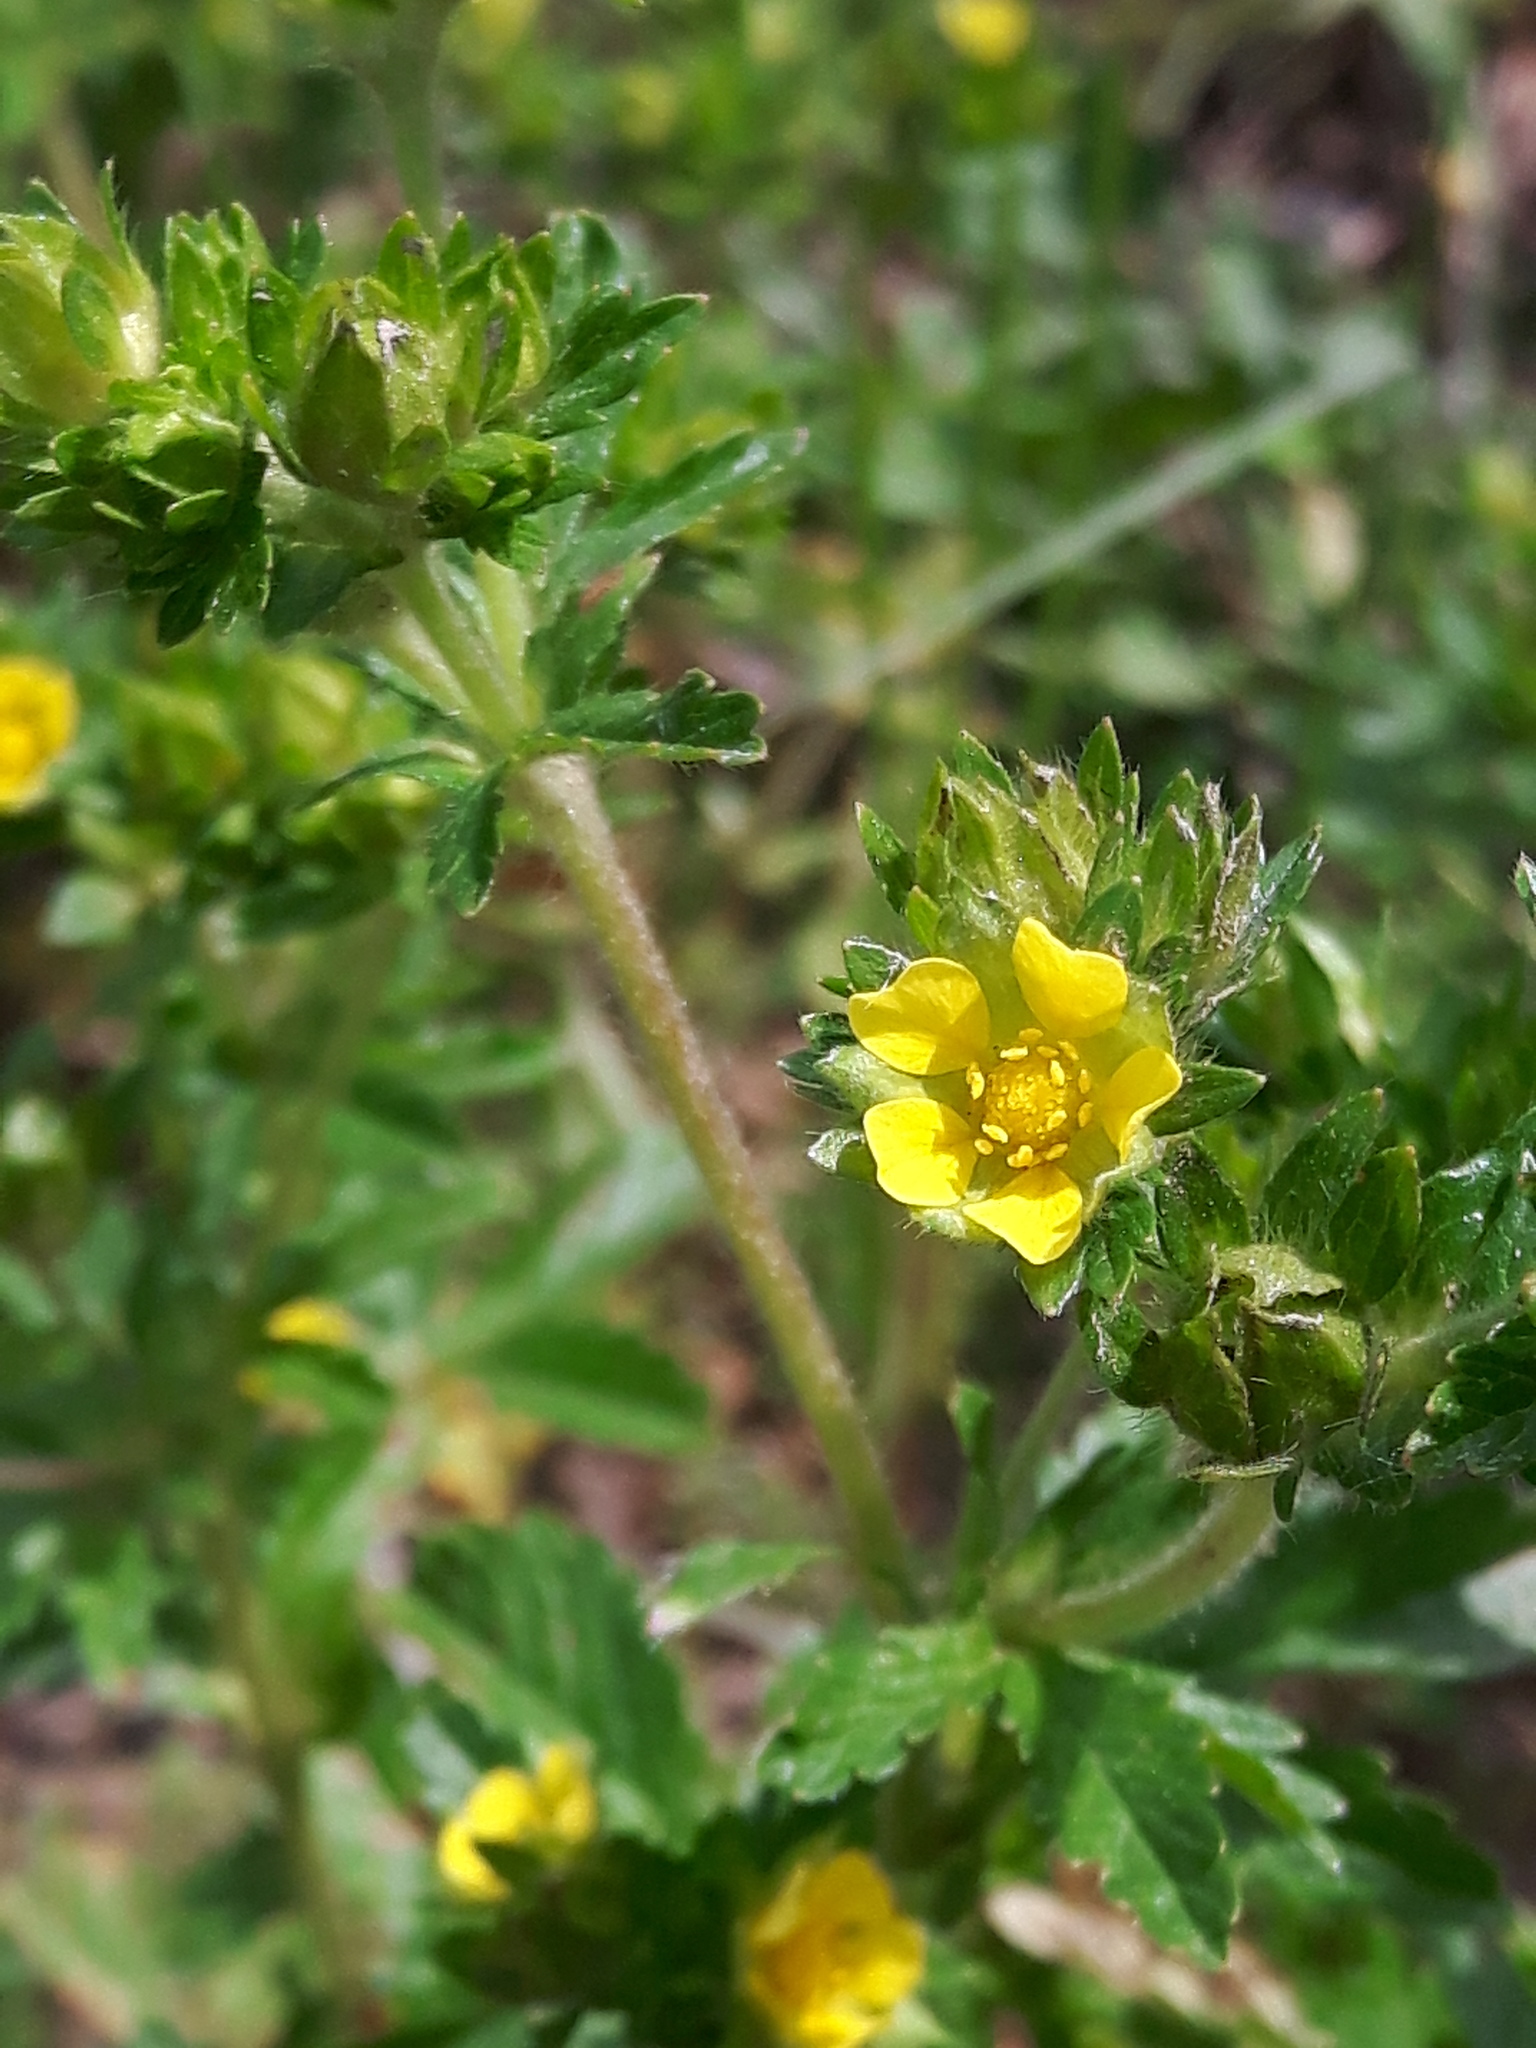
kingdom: Plantae
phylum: Tracheophyta
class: Magnoliopsida
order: Rosales
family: Rosaceae
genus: Potentilla
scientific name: Potentilla norvegica
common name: Ternate-leaved cinquefoil
